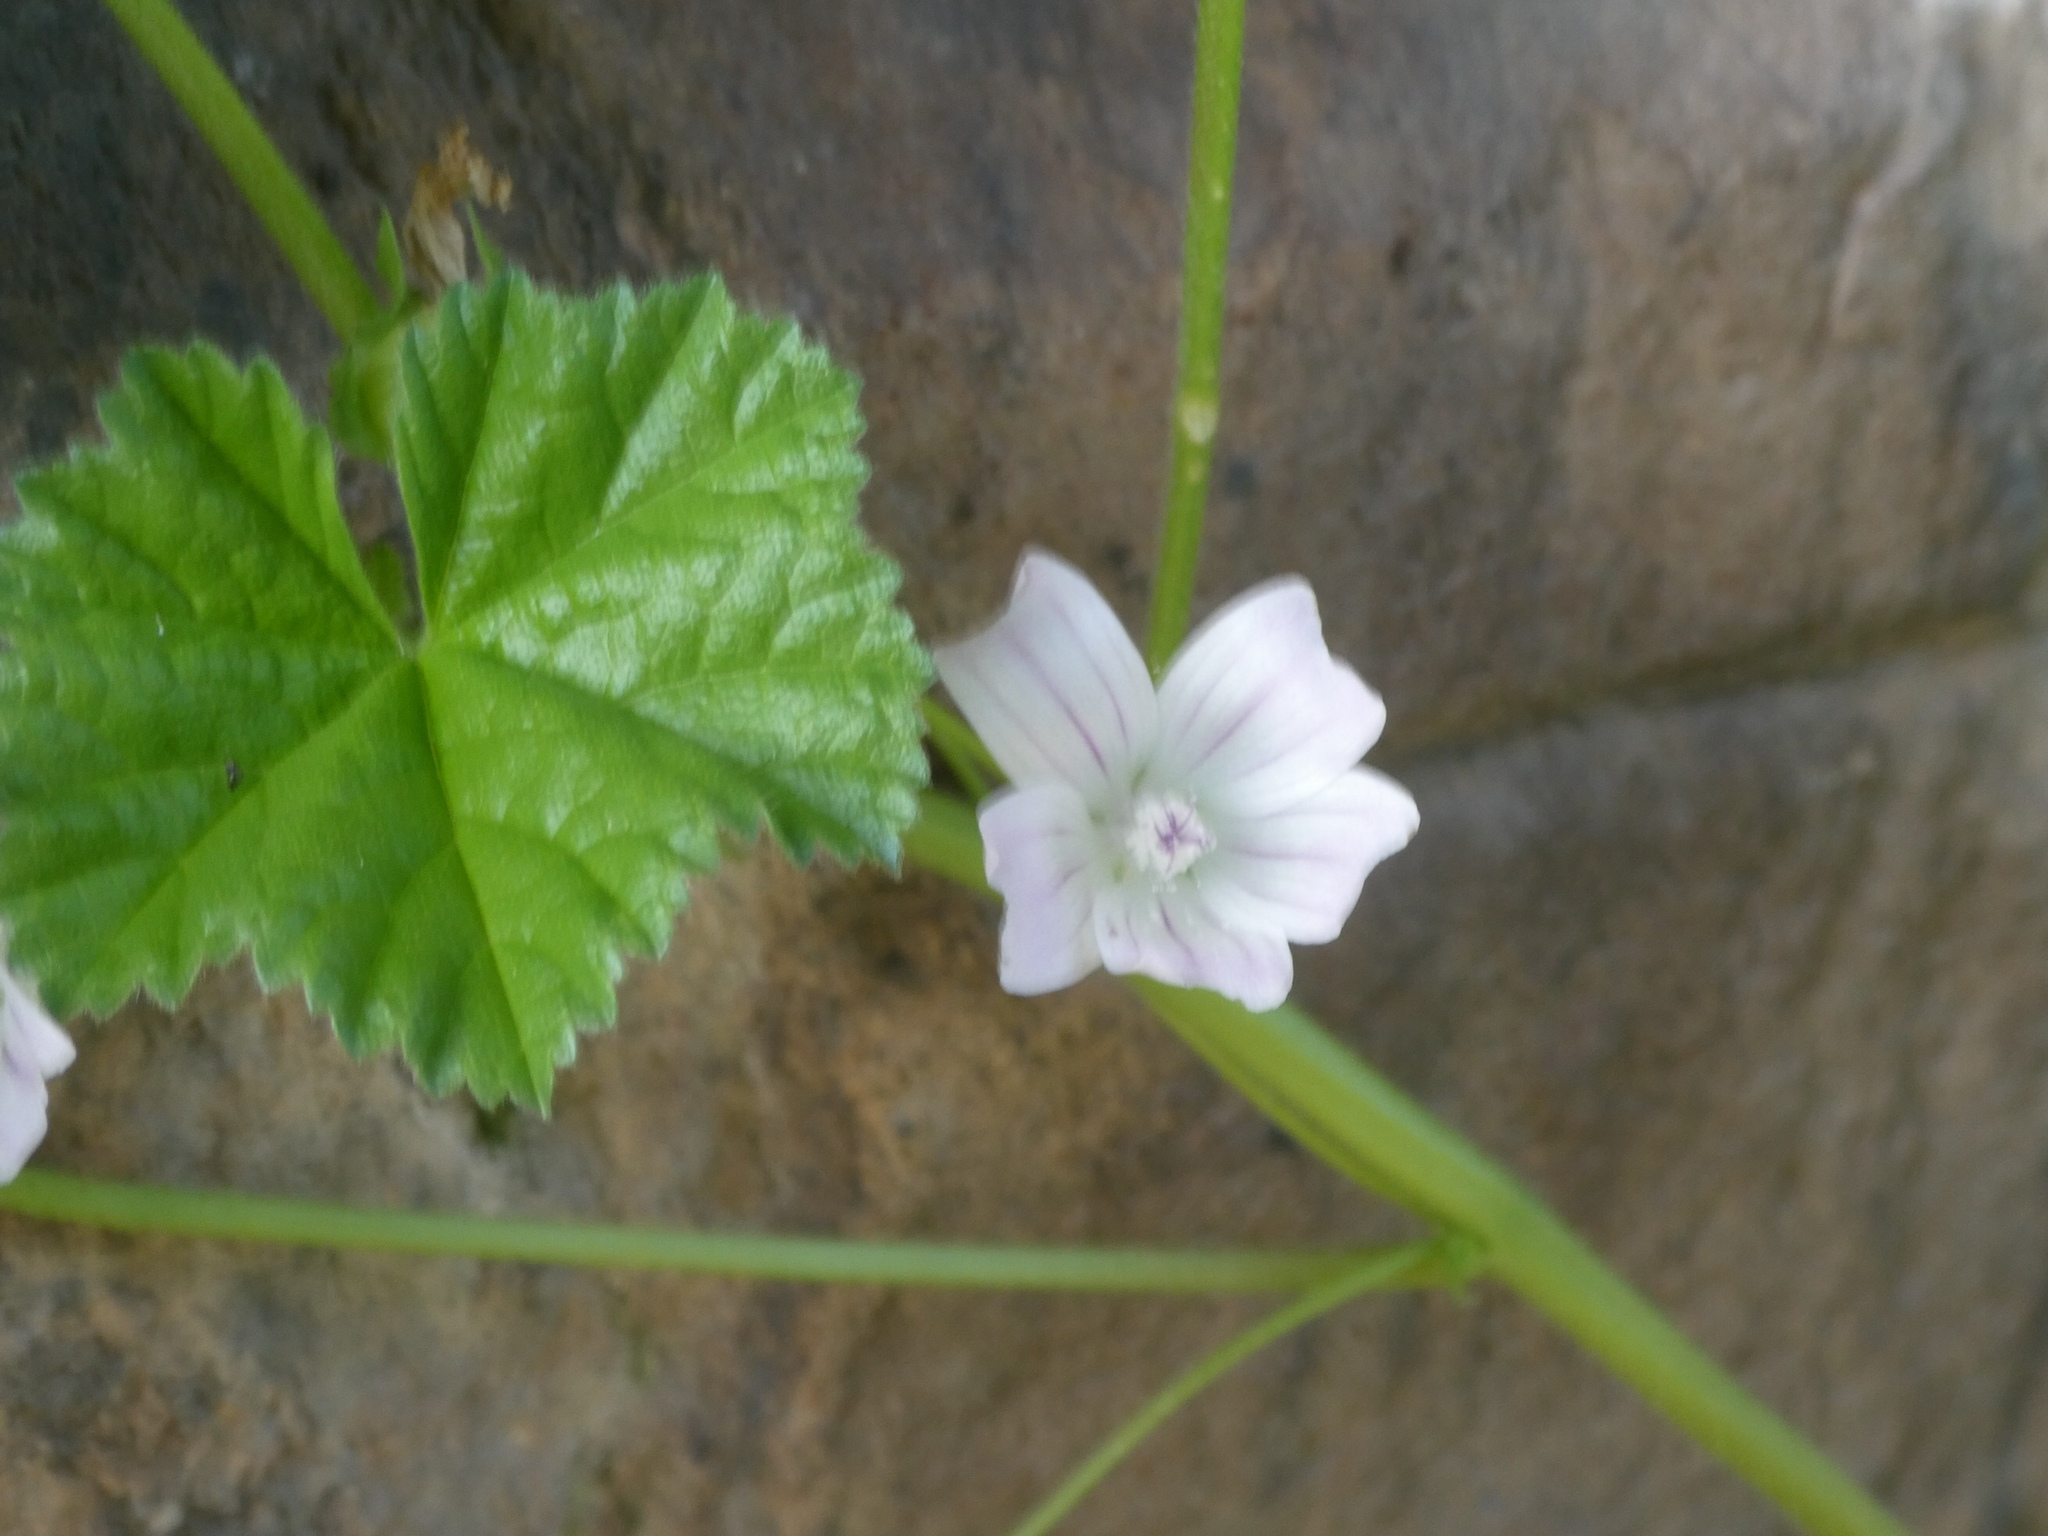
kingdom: Plantae
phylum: Tracheophyta
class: Magnoliopsida
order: Malvales
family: Malvaceae
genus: Malva
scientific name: Malva neglecta
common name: Common mallow
